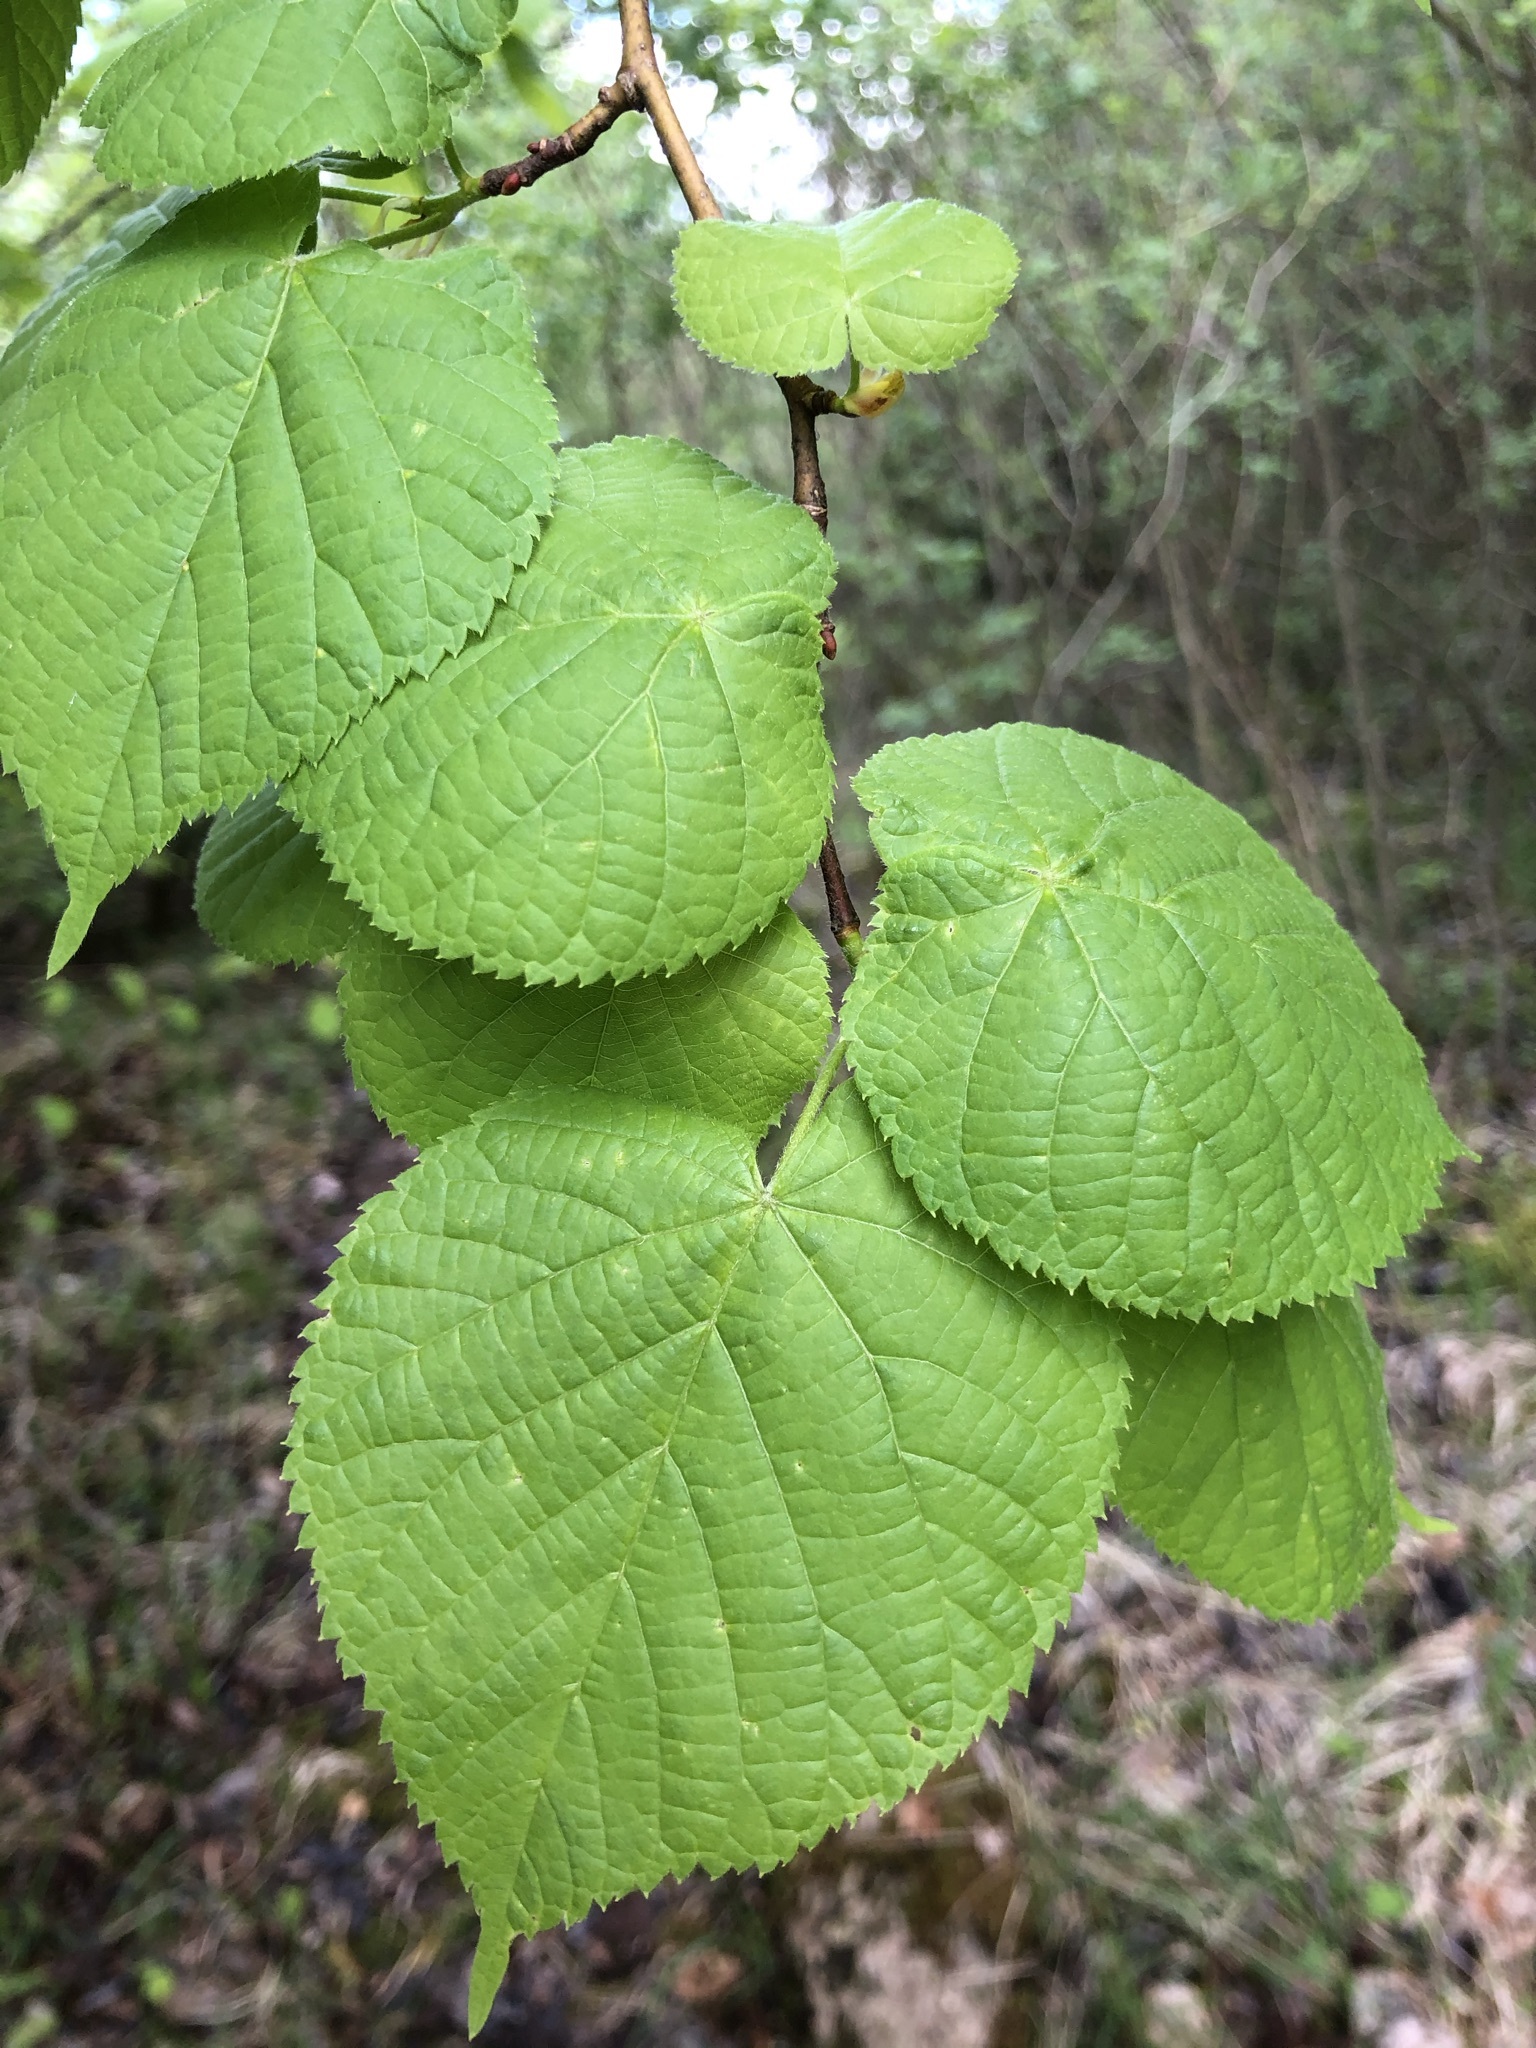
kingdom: Plantae
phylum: Tracheophyta
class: Magnoliopsida
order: Malvales
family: Malvaceae
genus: Tilia
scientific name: Tilia platyphyllos
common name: Large-leaved lime
